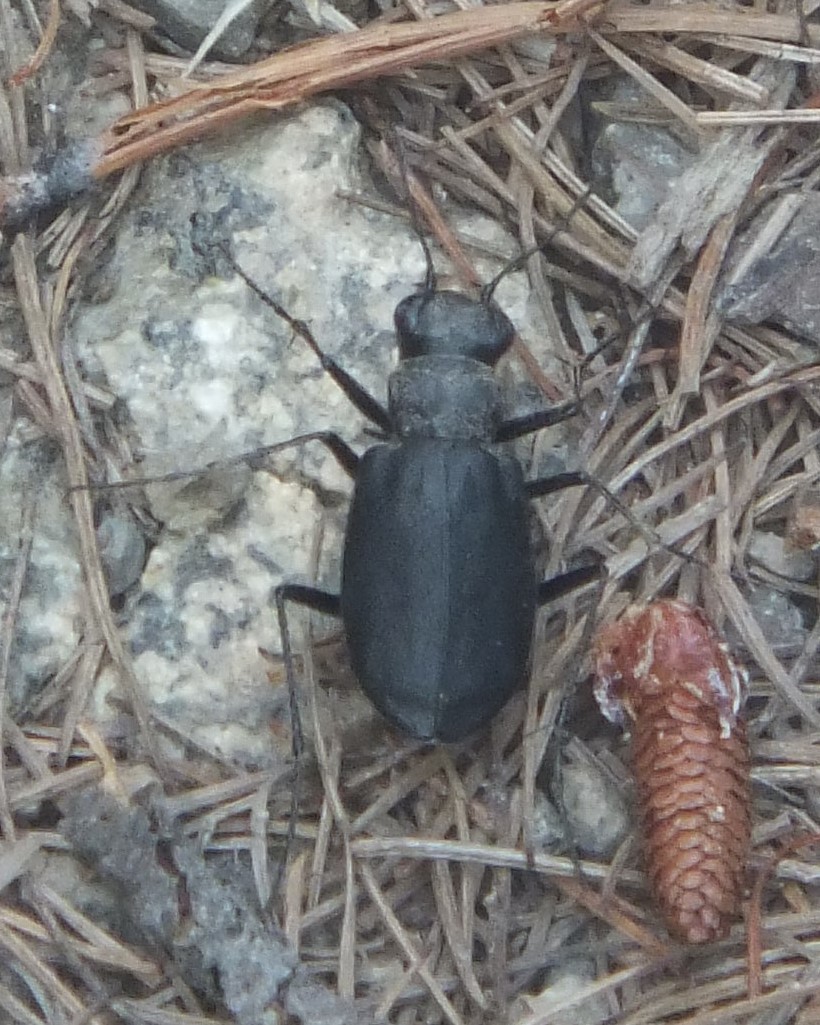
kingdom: Animalia
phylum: Arthropoda
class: Insecta
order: Coleoptera
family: Carabidae
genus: Cicindela
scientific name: Cicindela longilabris
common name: Boreal long-lipped tiger beetle
